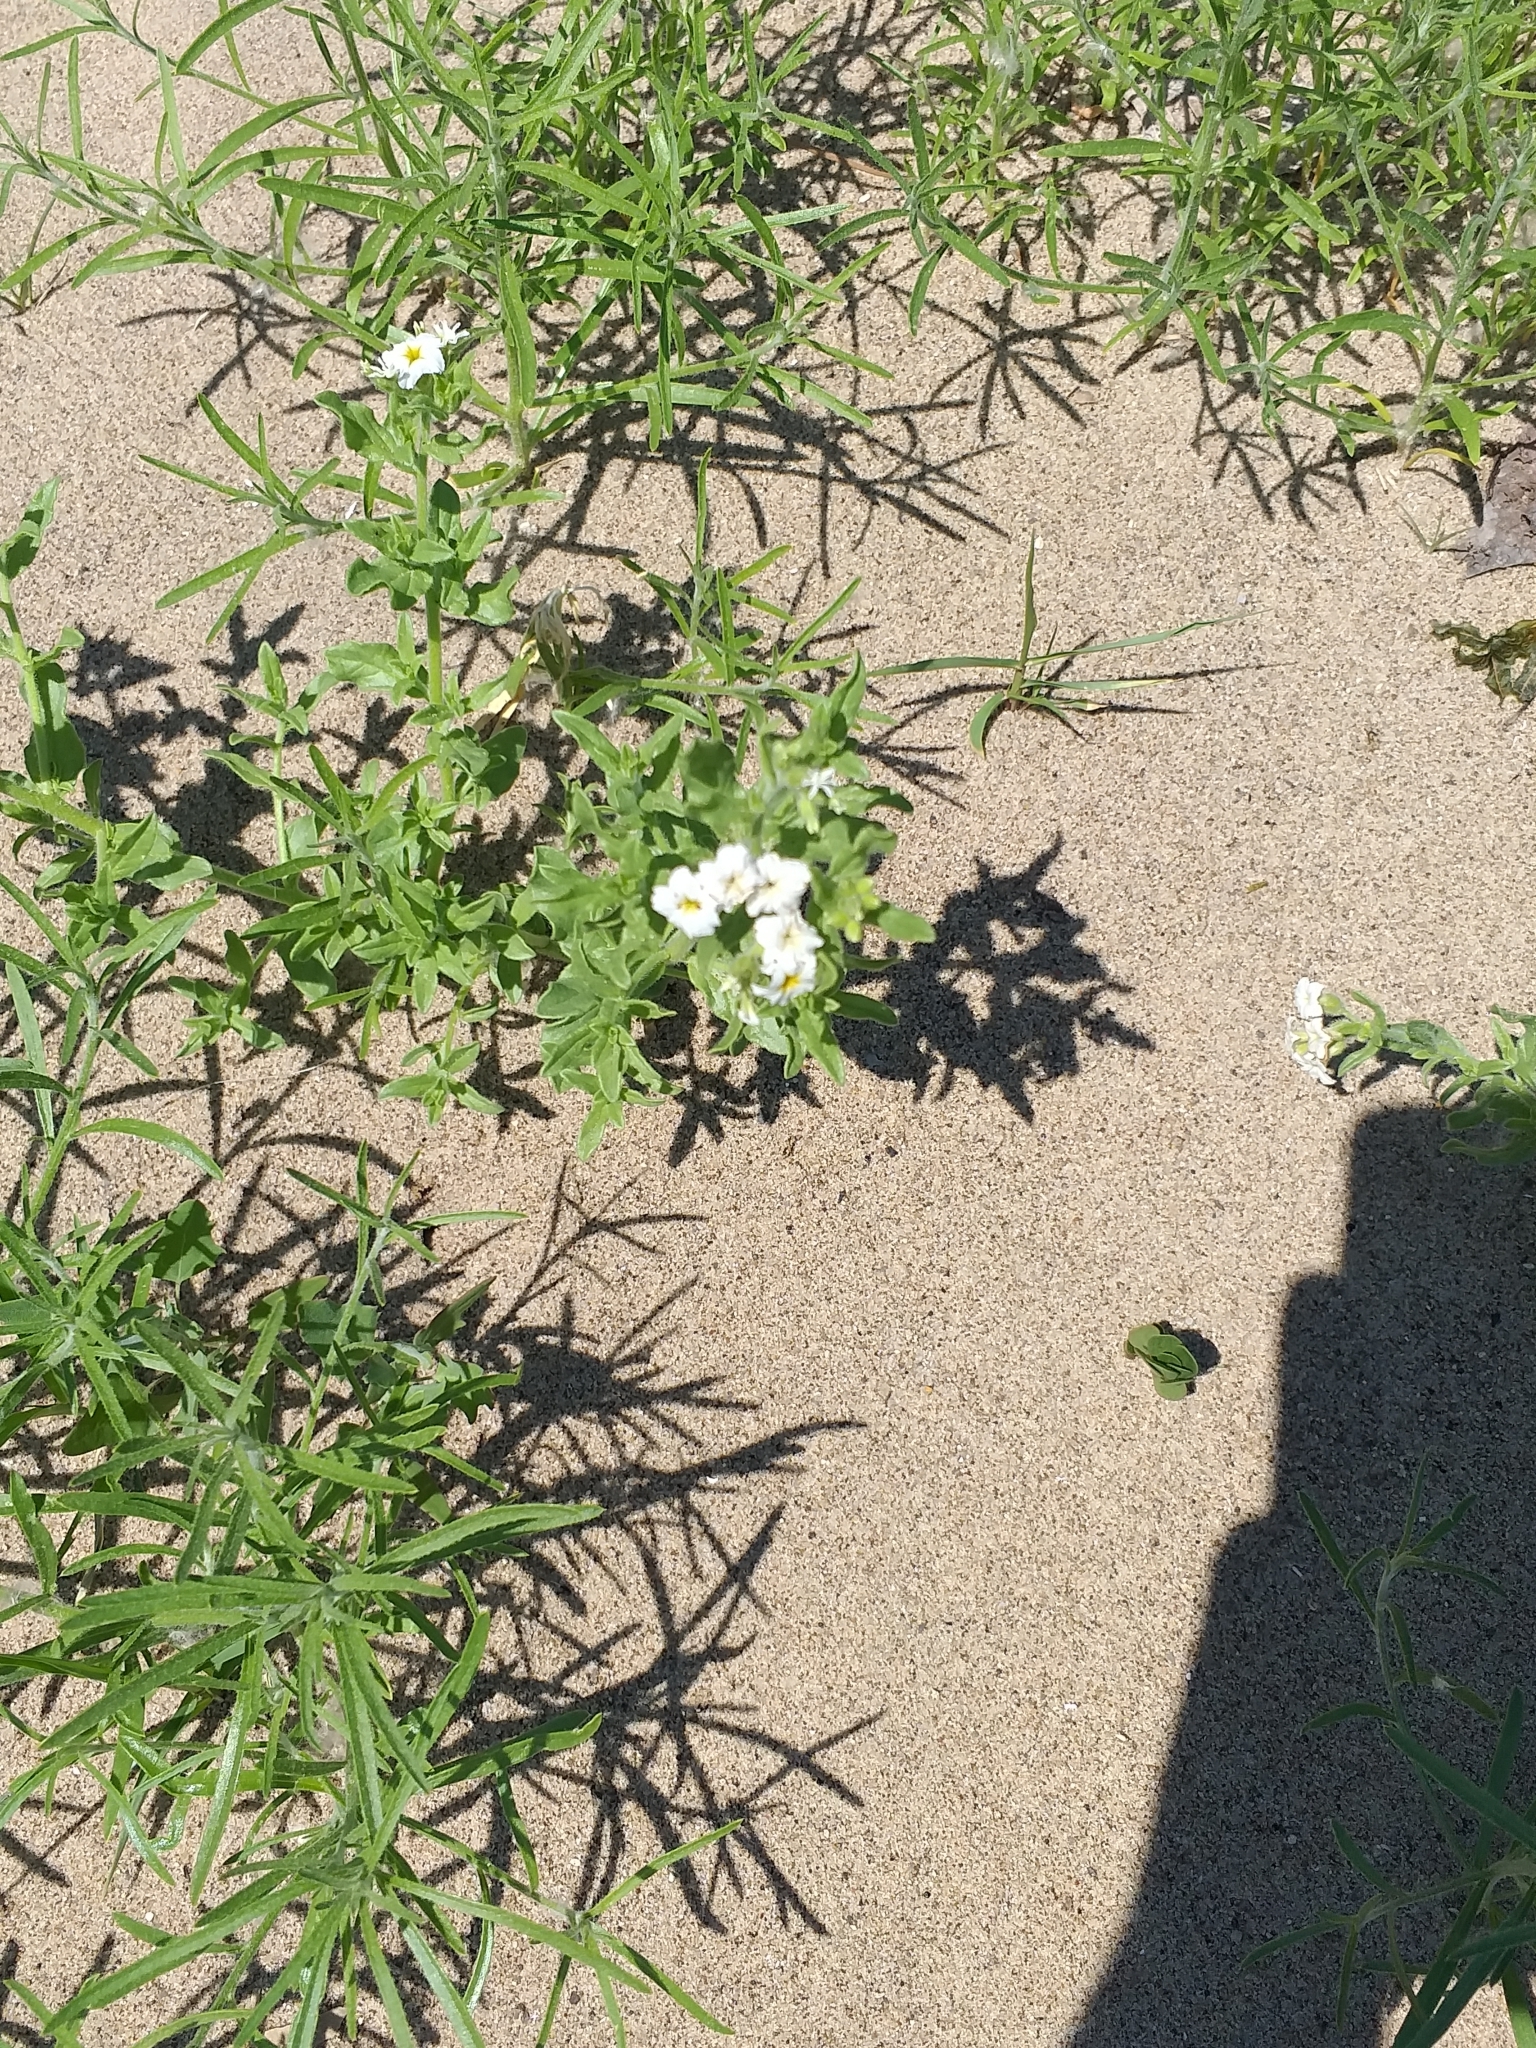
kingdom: Plantae
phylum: Tracheophyta
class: Magnoliopsida
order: Boraginales
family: Heliotropiaceae
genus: Tournefortia
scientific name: Tournefortia sibirica
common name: Siberian sea rosemary
